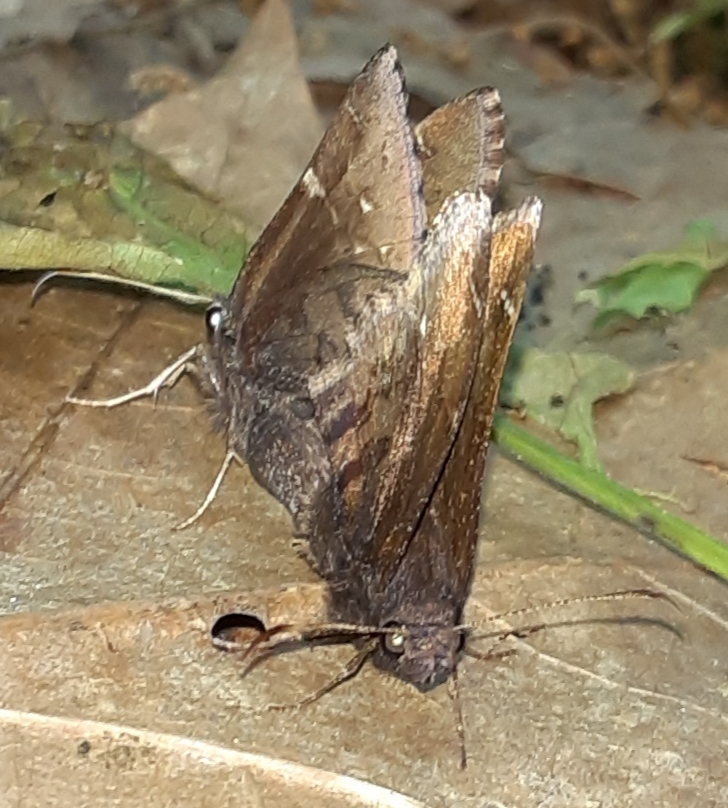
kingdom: Animalia
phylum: Arthropoda
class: Insecta
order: Lepidoptera
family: Hesperiidae
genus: Thorybes
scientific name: Thorybes pylades
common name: Northern cloudywing
